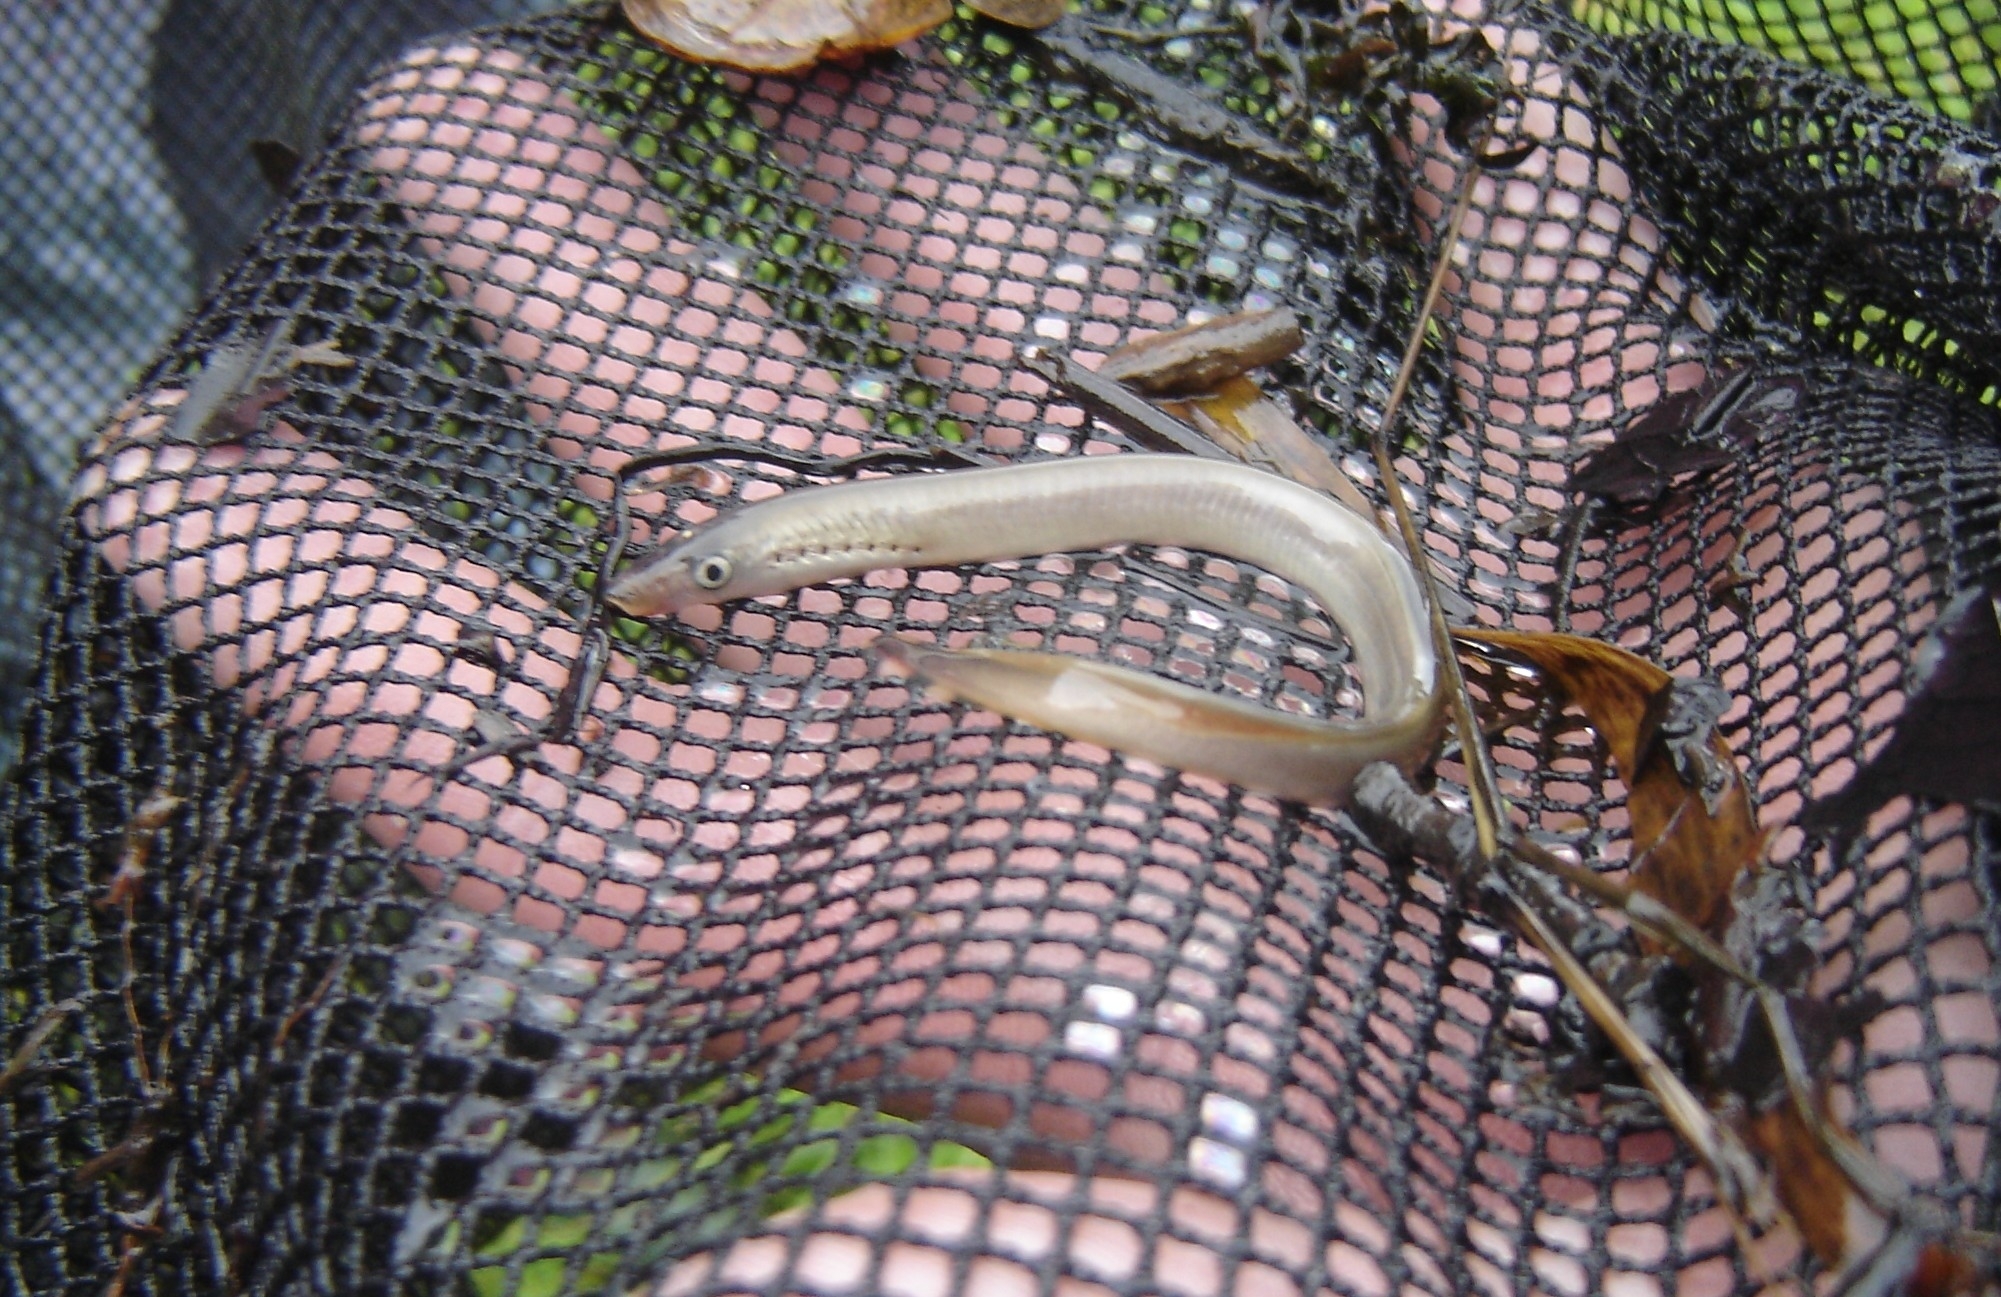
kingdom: Animalia
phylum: Chordata
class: Petromyzonti
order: Petromyzontiformes
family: Petromyzontidae
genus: Lampetra
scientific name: Lampetra fluviatilis
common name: River lamprey
